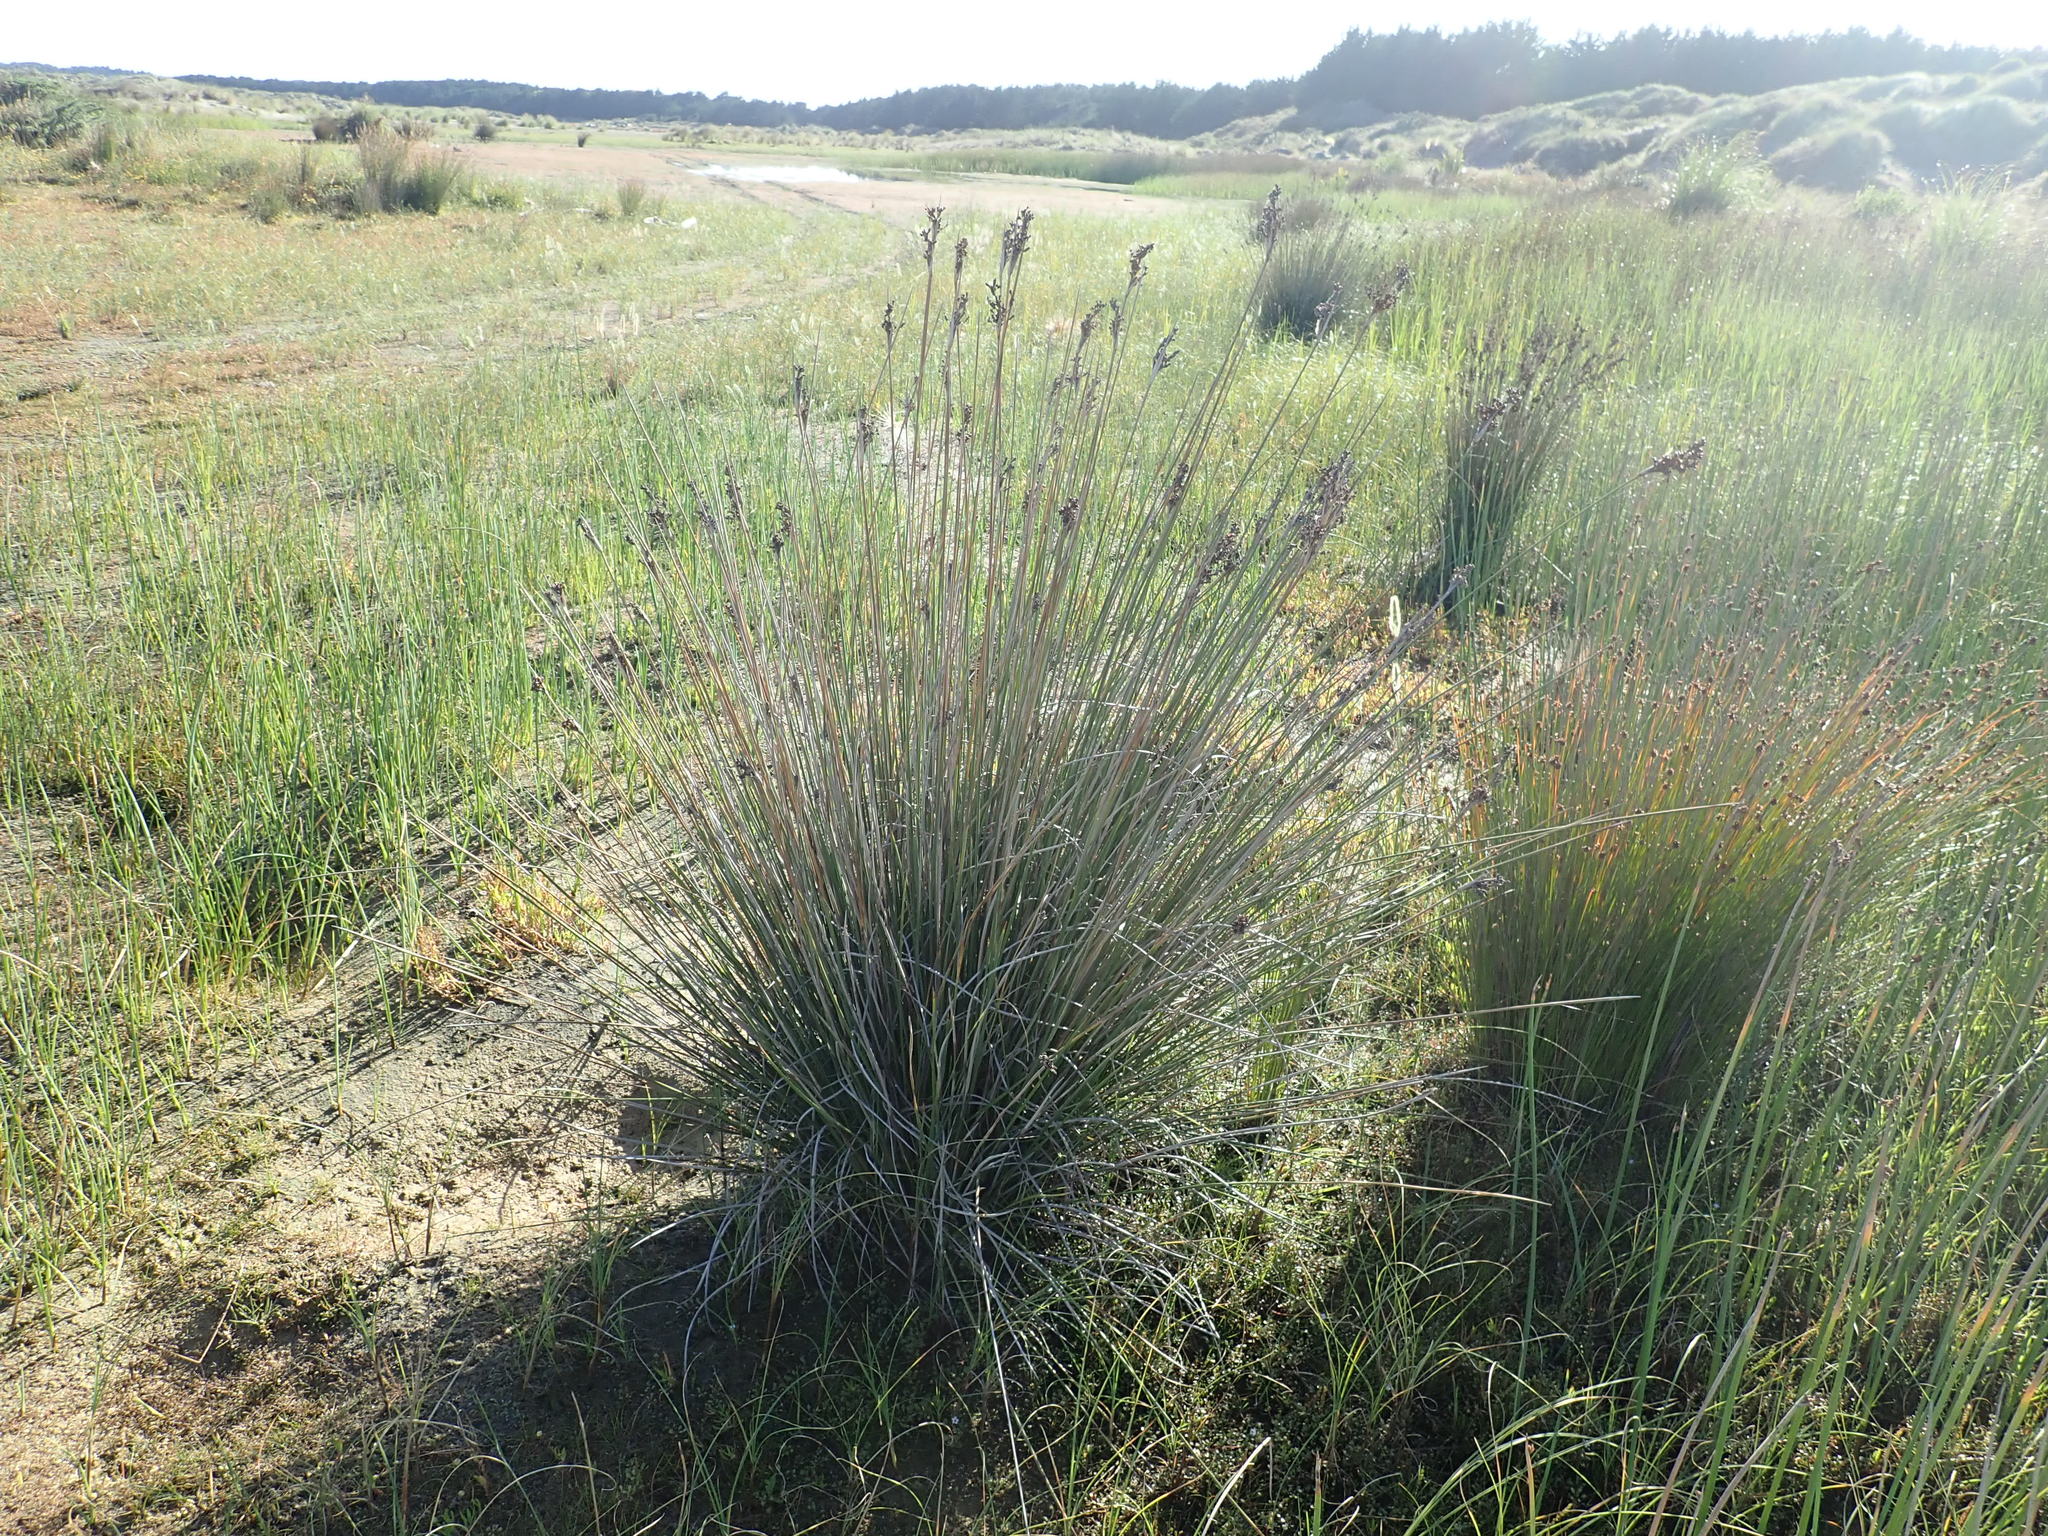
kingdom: Plantae
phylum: Tracheophyta
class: Liliopsida
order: Poales
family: Juncaceae
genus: Juncus
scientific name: Juncus acutus
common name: Sharp rush
